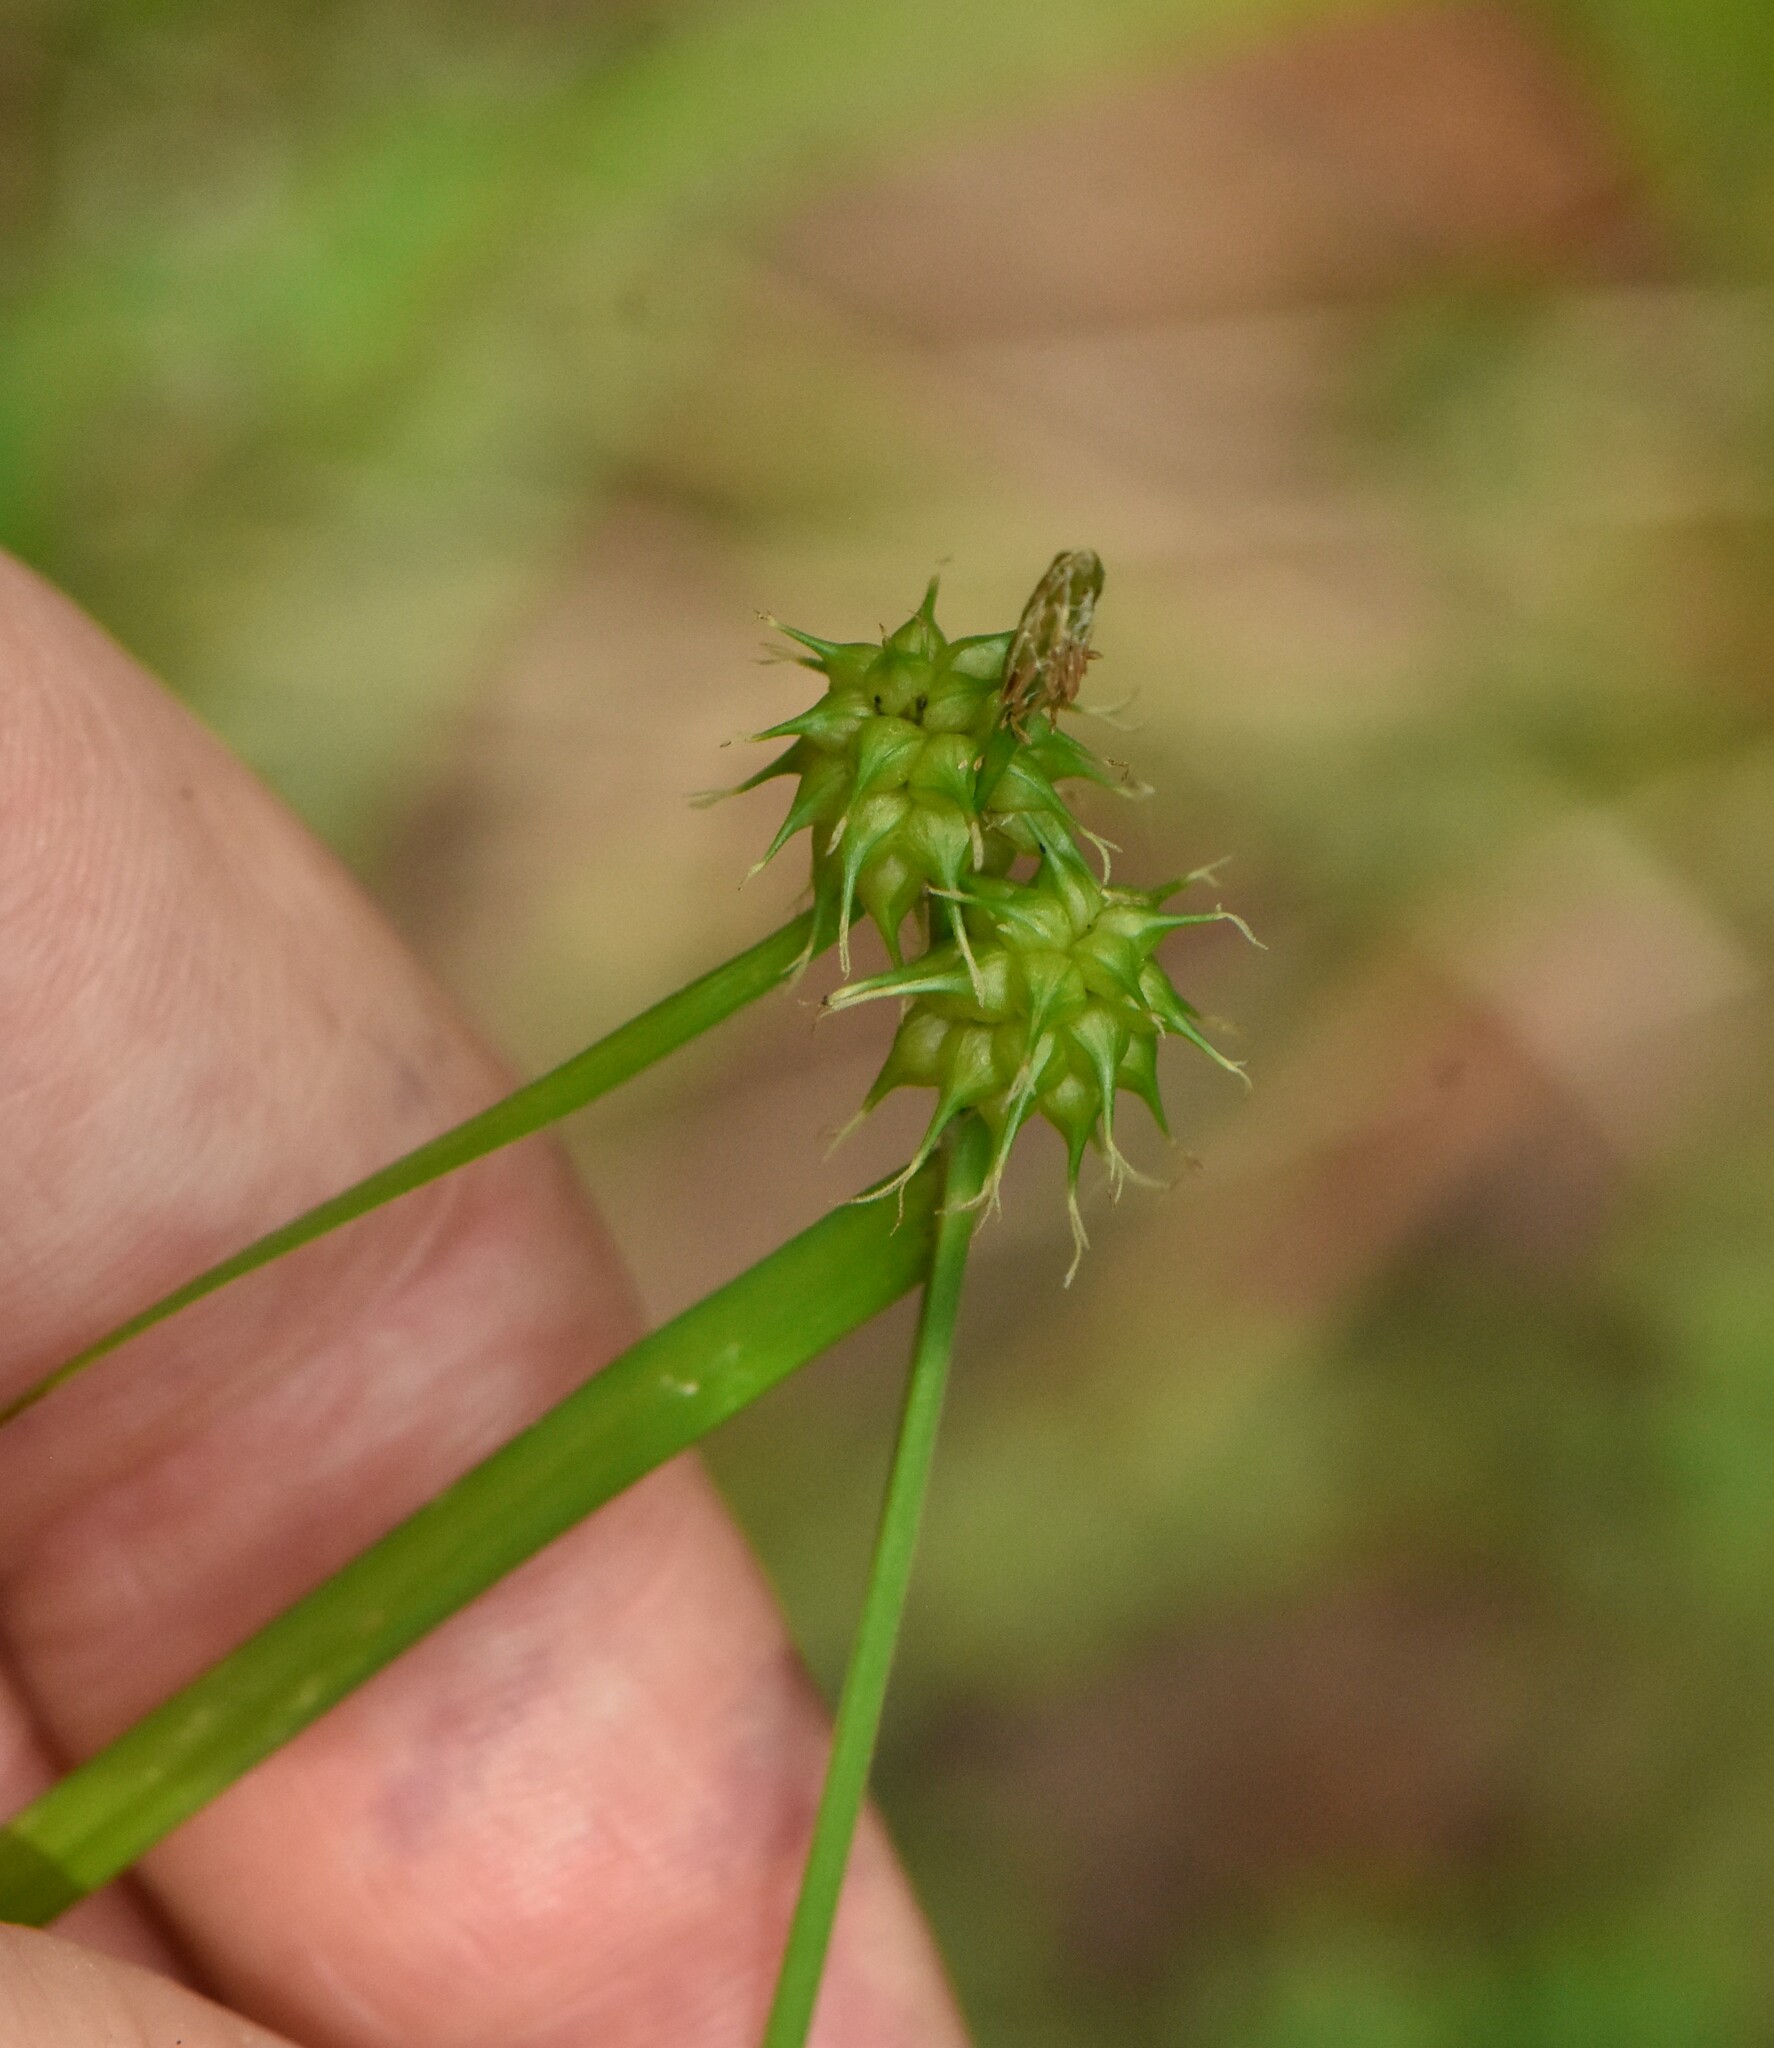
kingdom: Plantae
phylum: Tracheophyta
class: Liliopsida
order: Poales
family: Cyperaceae
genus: Carex
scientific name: Carex flava
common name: Large yellow-sedge
